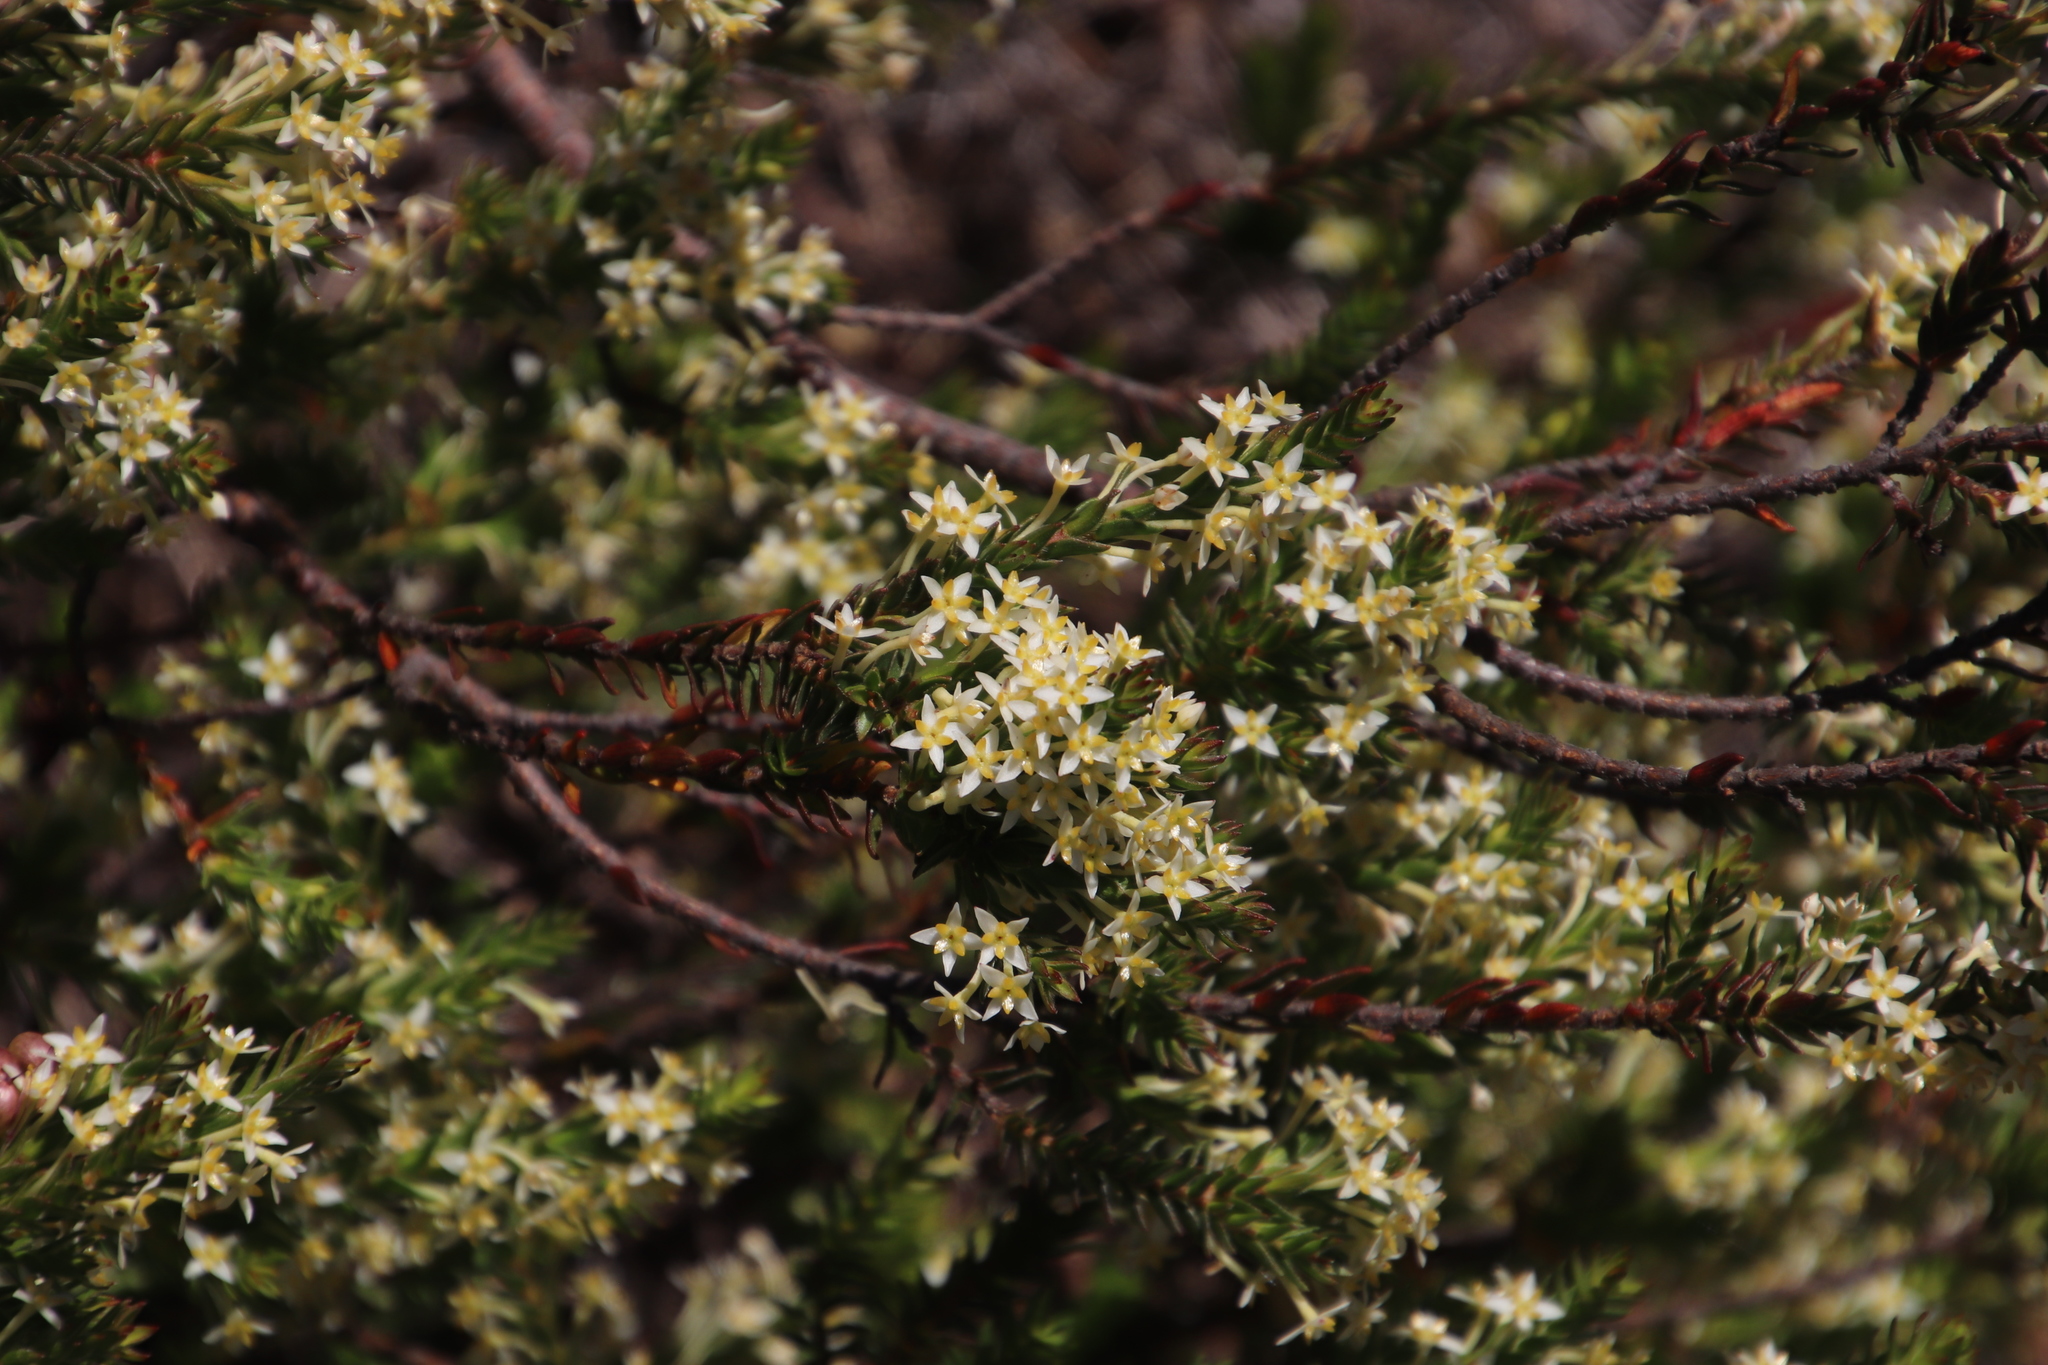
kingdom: Plantae
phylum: Tracheophyta
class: Magnoliopsida
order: Malvales
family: Thymelaeaceae
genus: Struthiola
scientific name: Struthiola striata
